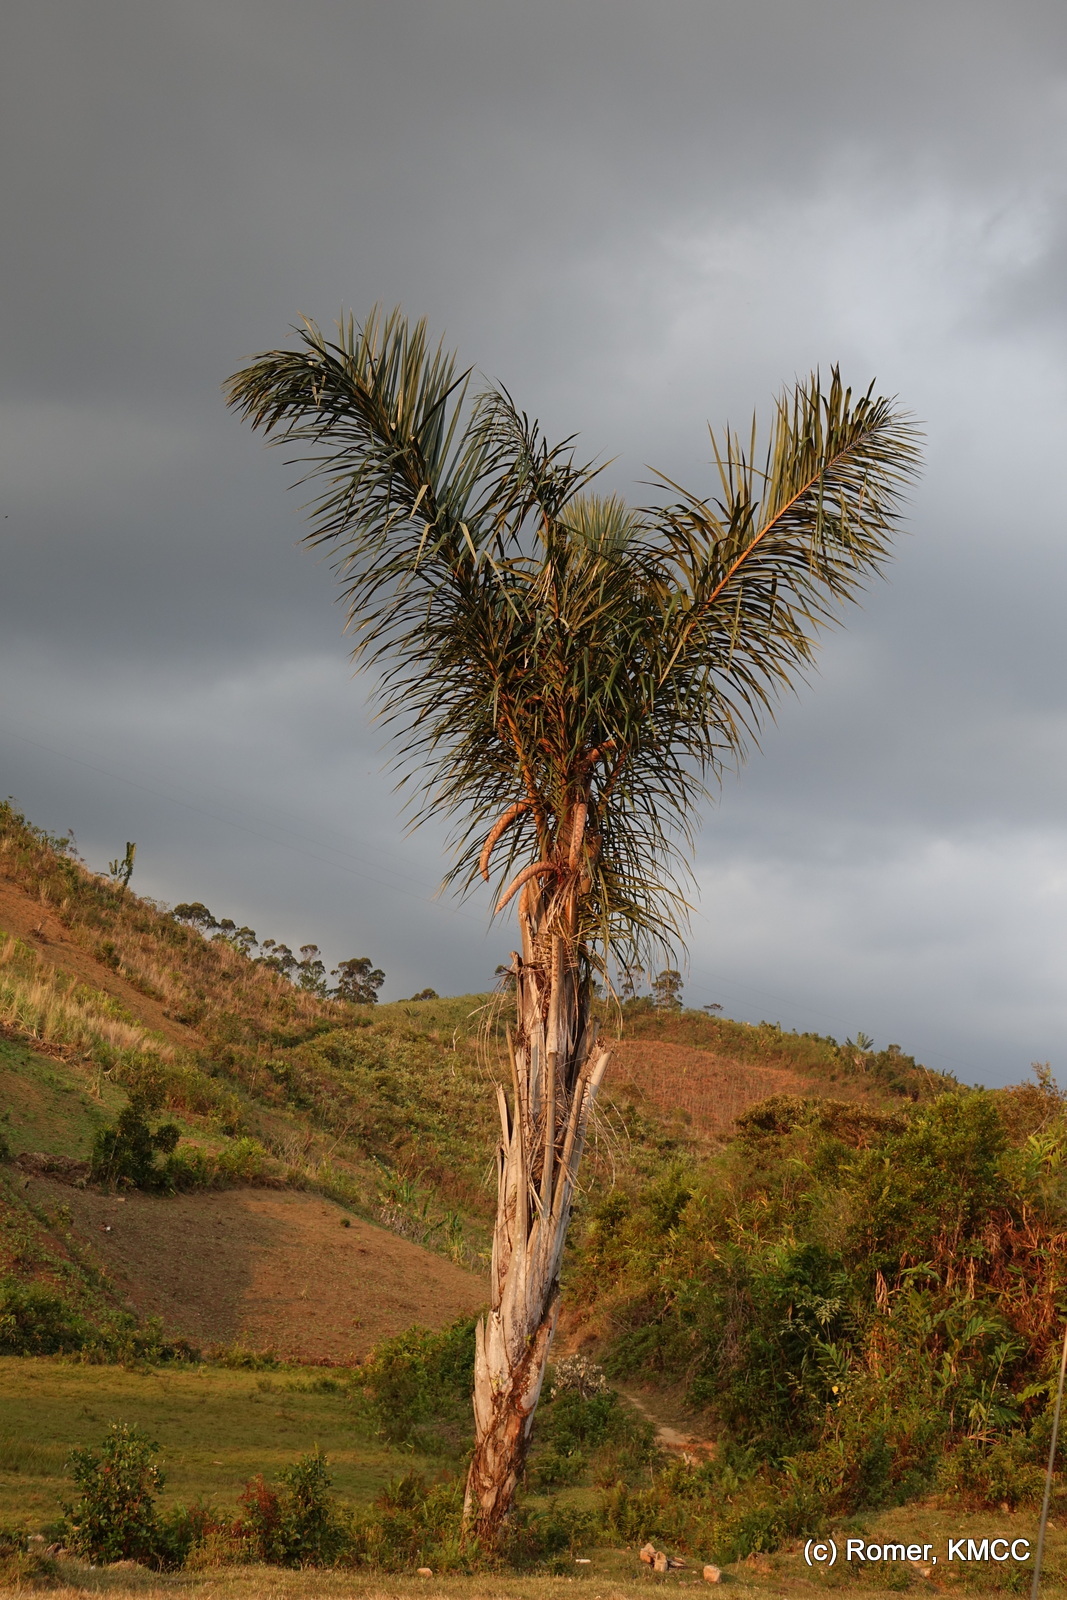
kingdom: Plantae
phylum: Tracheophyta
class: Liliopsida
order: Arecales
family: Arecaceae
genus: Raphia
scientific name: Raphia farinifera
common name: Raphia palm
